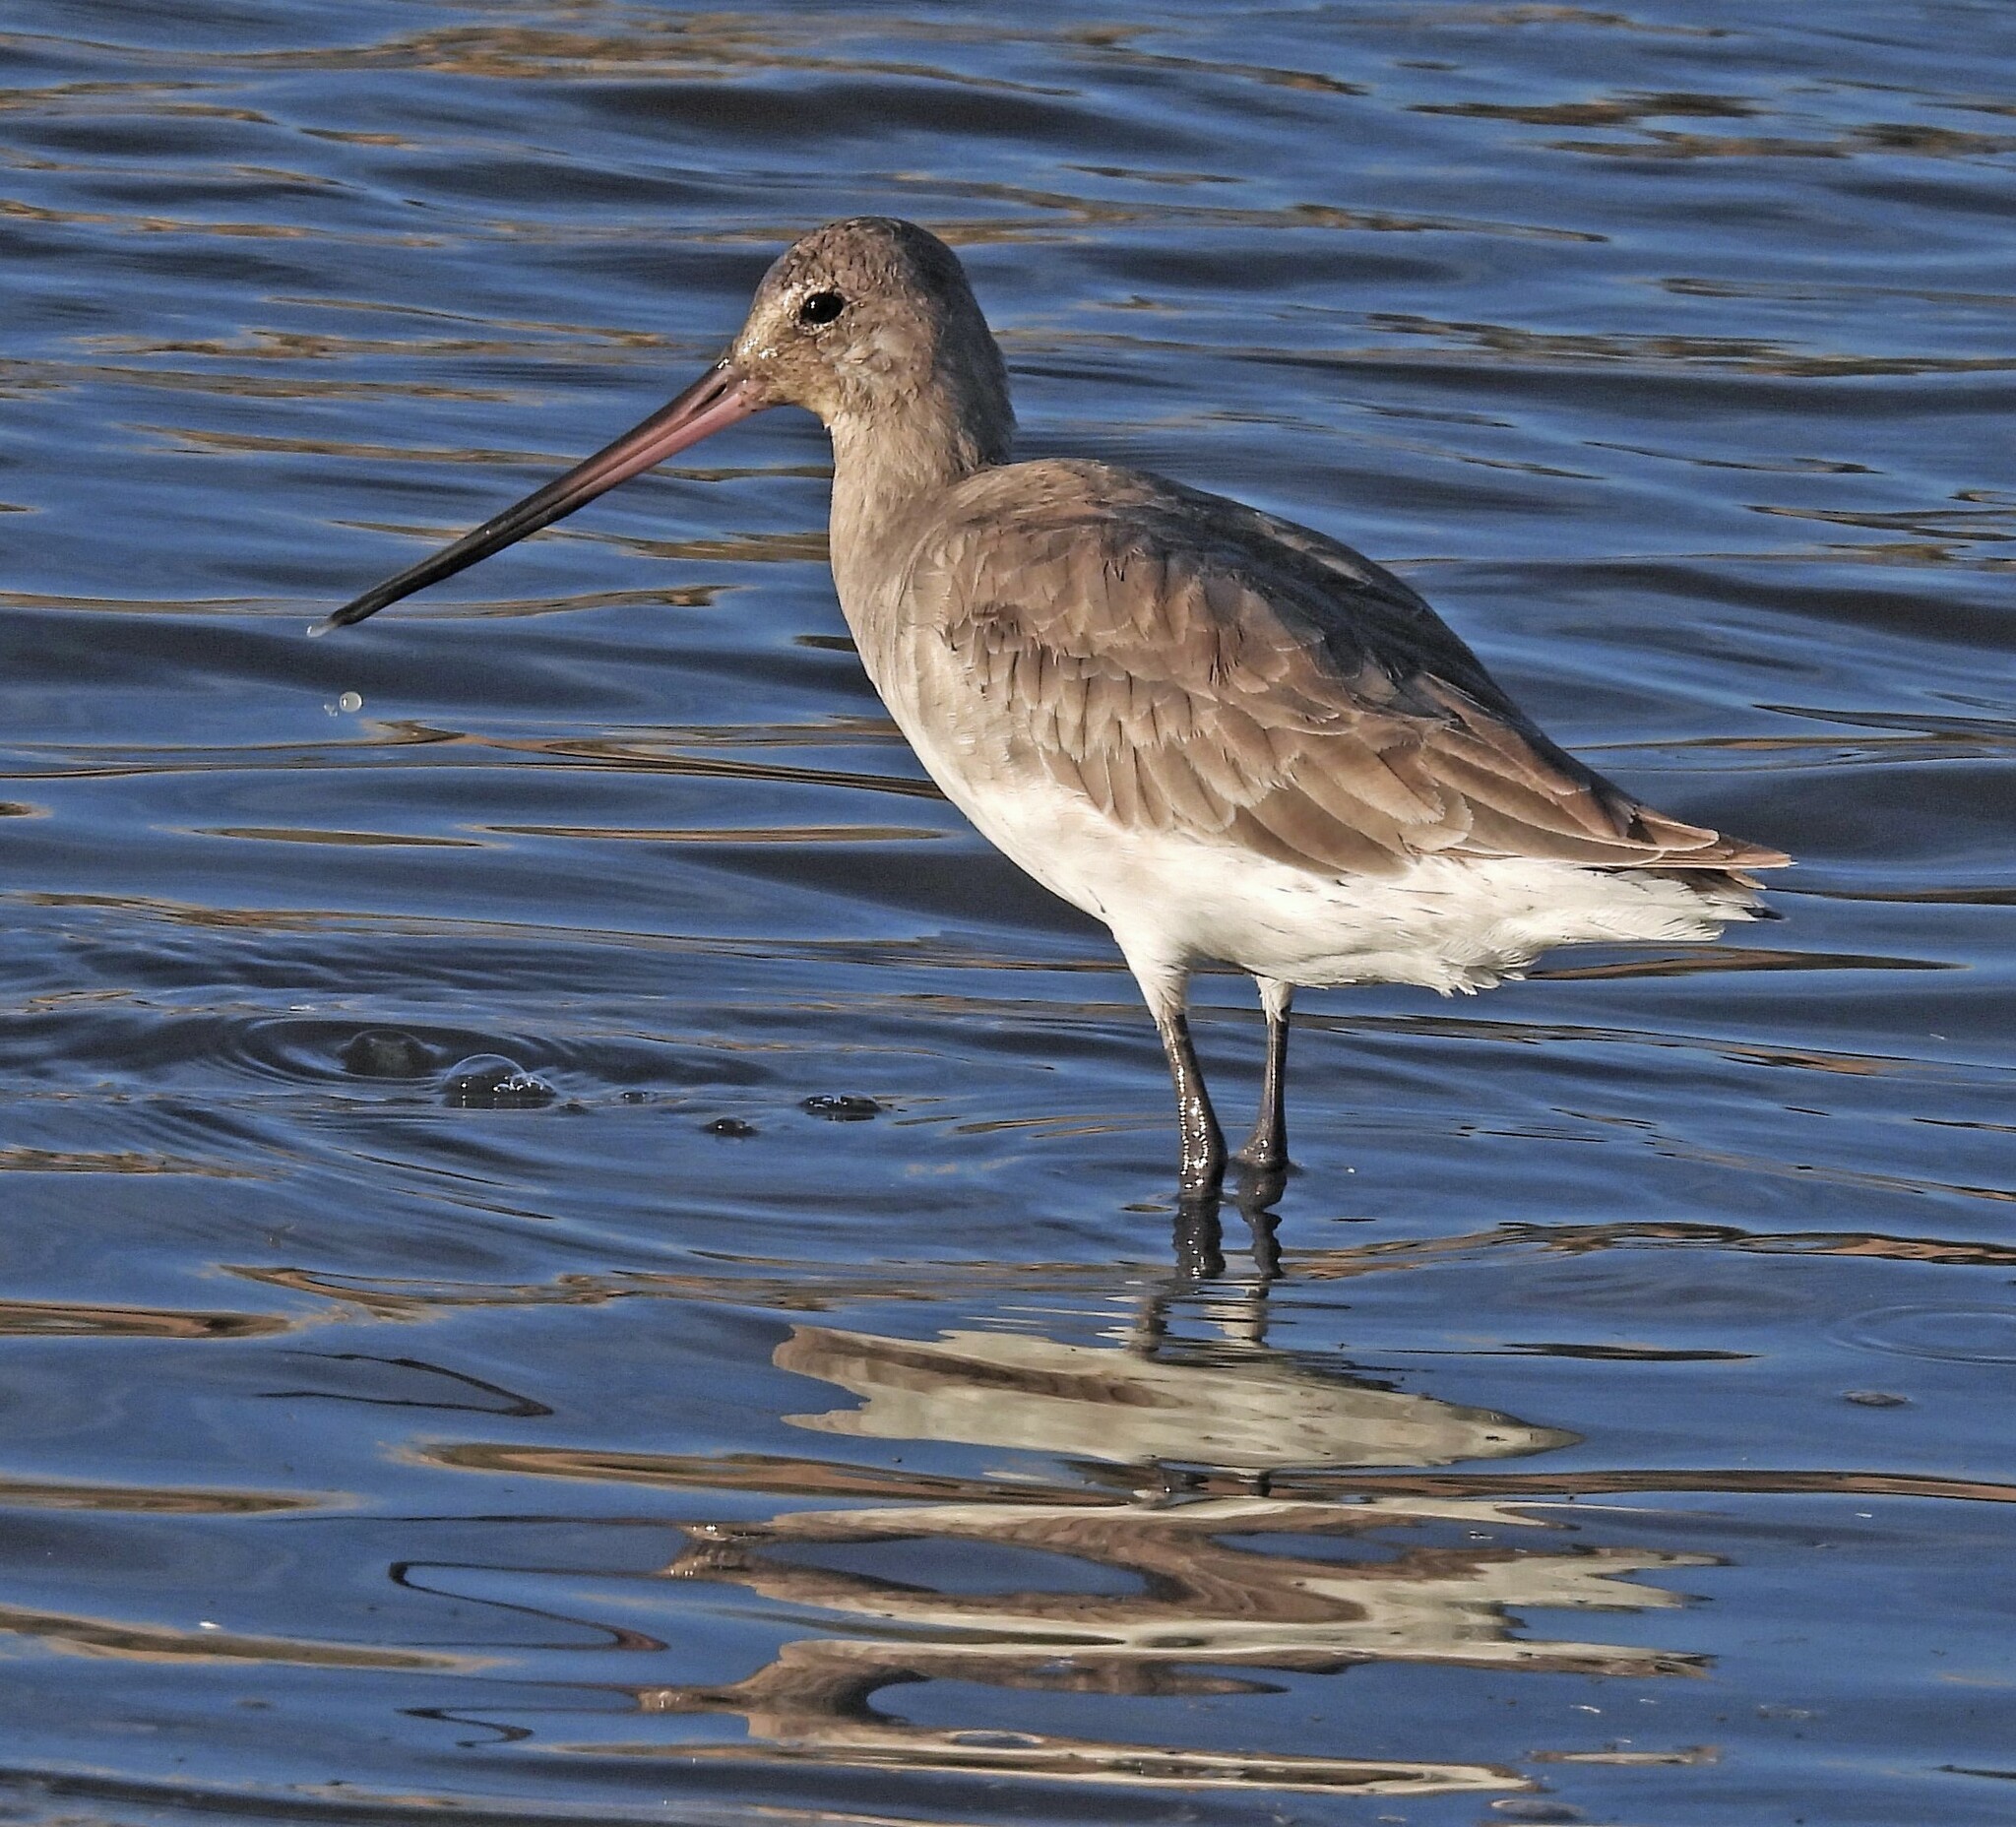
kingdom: Animalia
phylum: Chordata
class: Aves
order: Charadriiformes
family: Scolopacidae
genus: Limosa
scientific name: Limosa haemastica
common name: Hudsonian godwit
